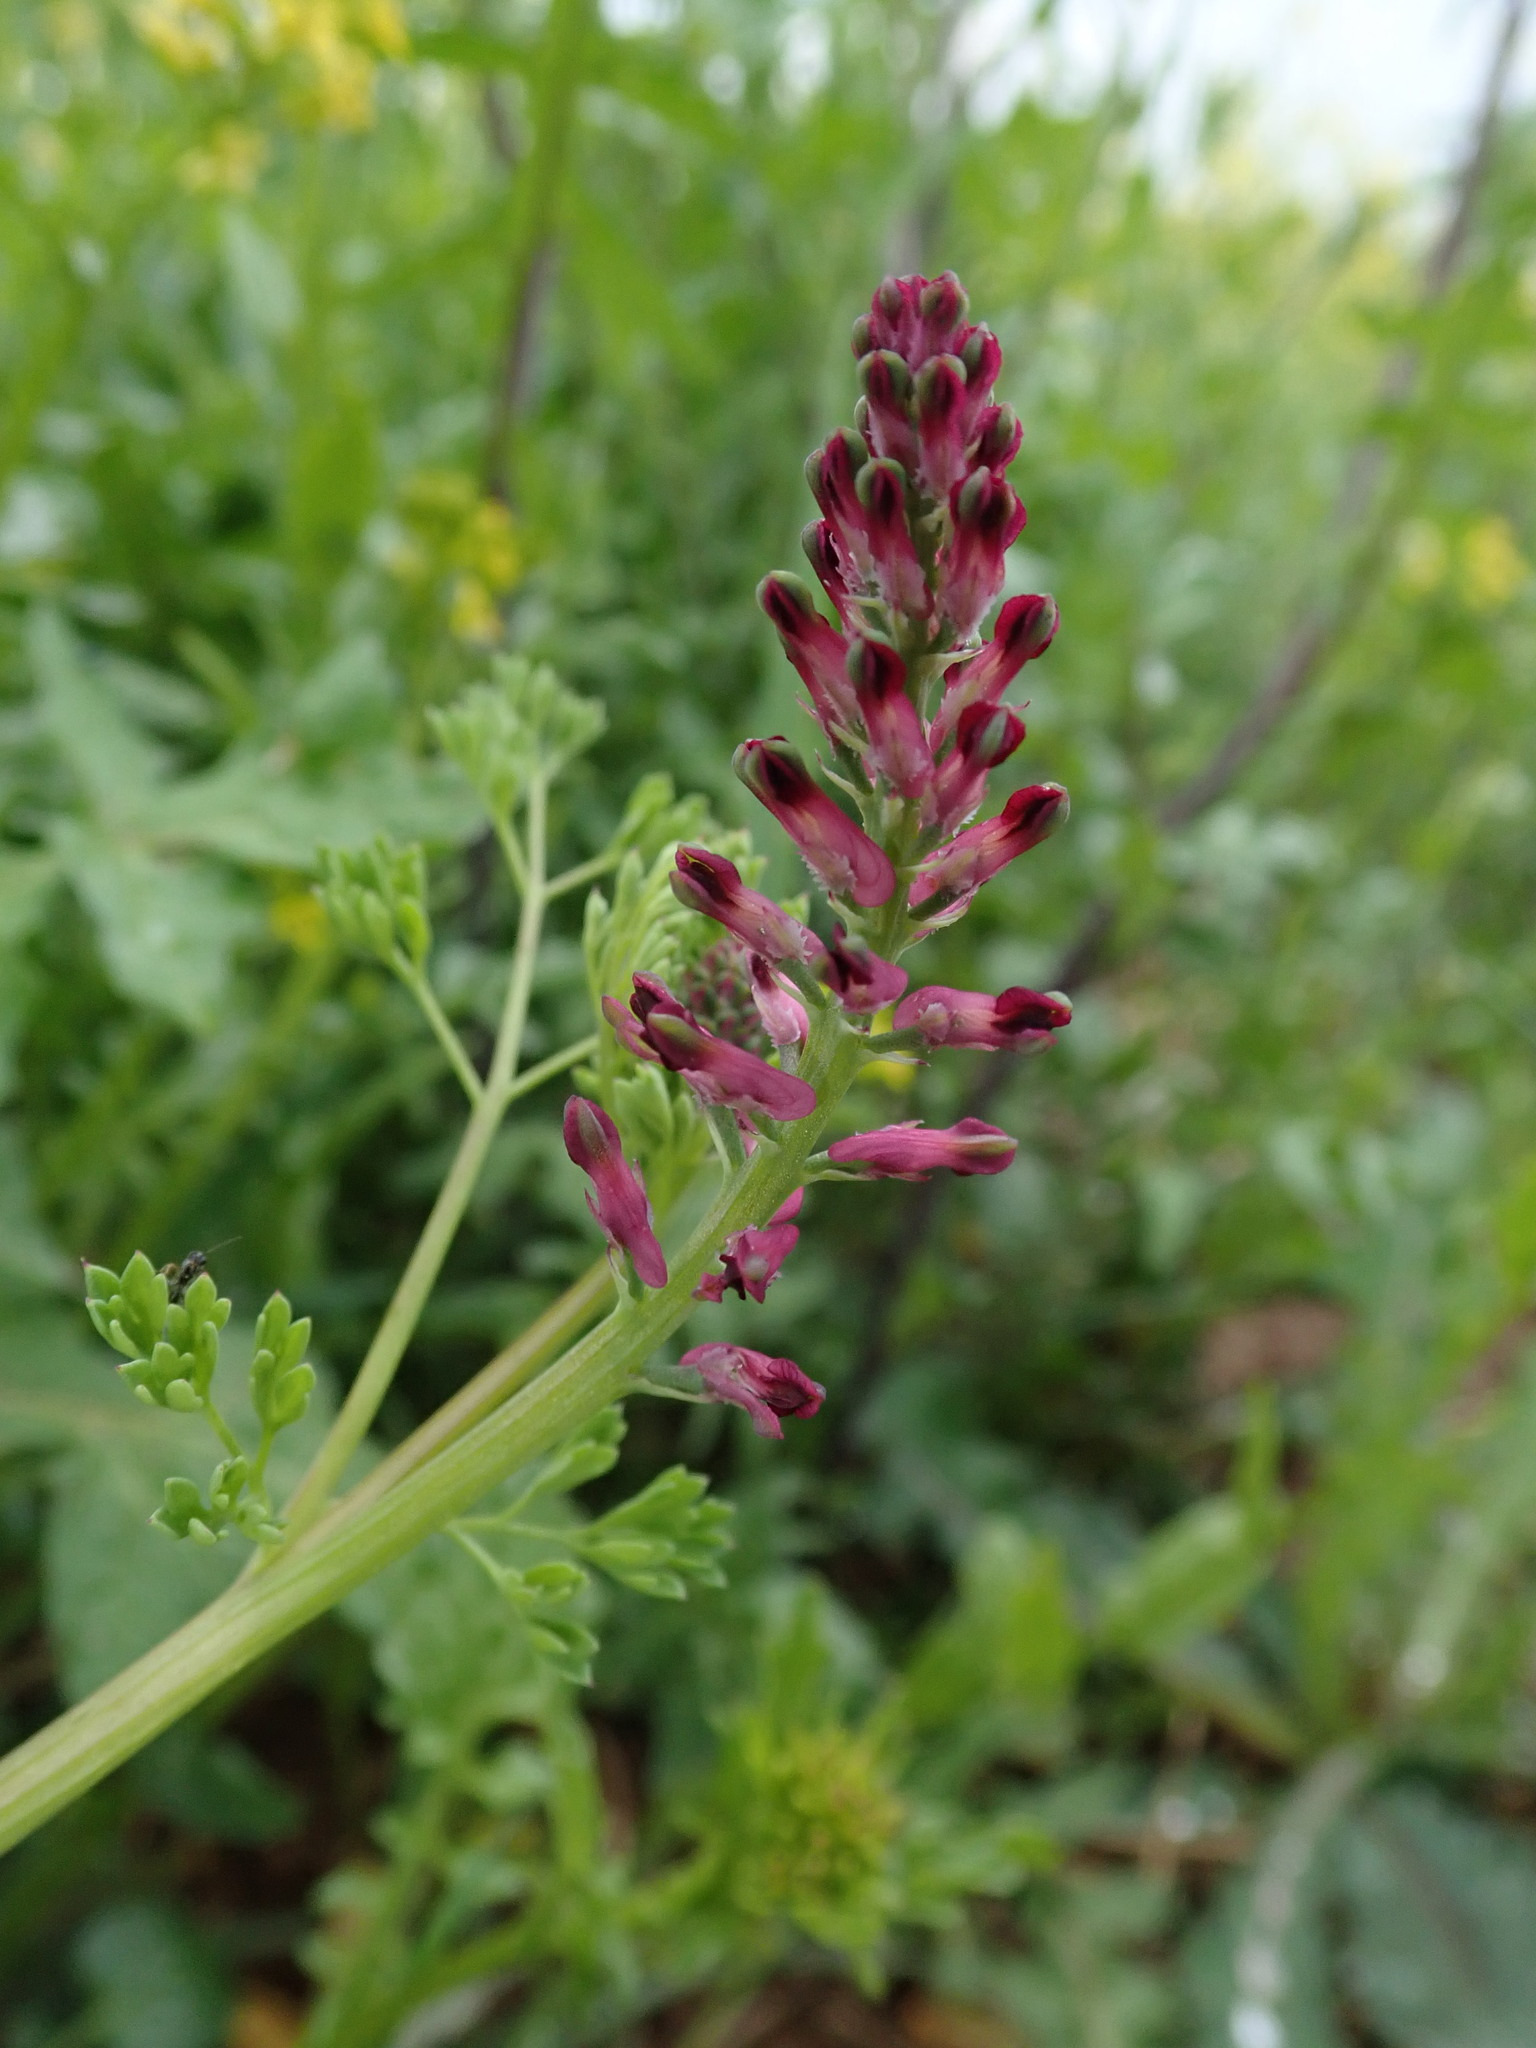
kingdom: Plantae
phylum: Tracheophyta
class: Magnoliopsida
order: Ranunculales
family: Papaveraceae
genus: Fumaria
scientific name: Fumaria officinalis
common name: Common fumitory
